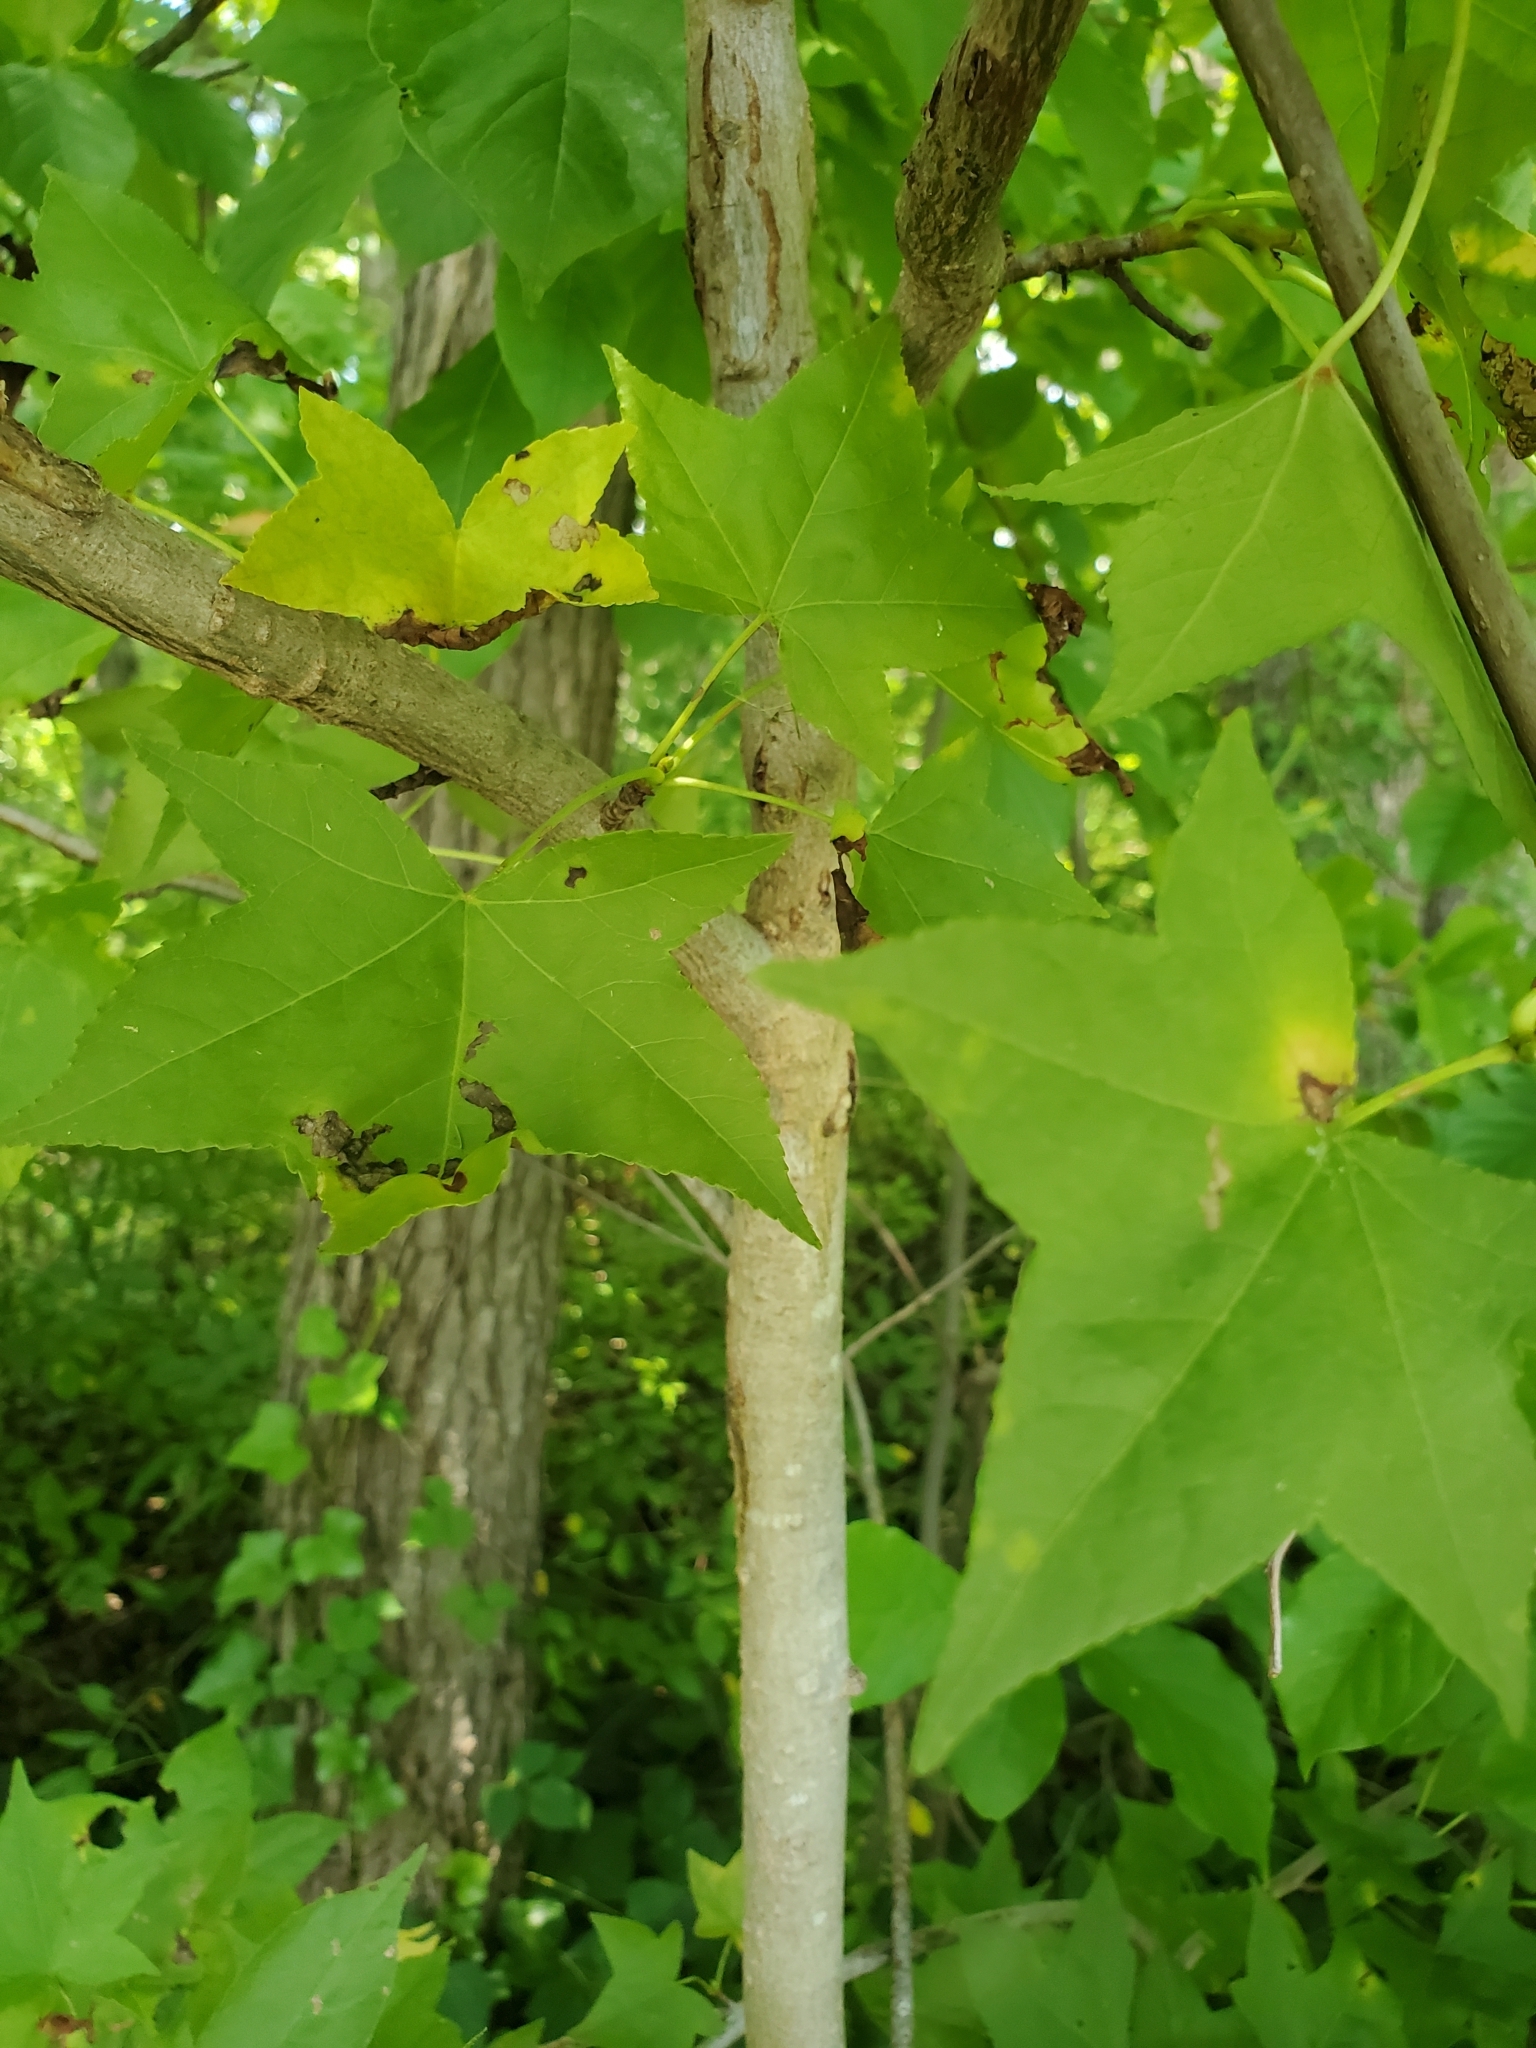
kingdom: Plantae
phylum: Tracheophyta
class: Magnoliopsida
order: Saxifragales
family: Altingiaceae
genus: Liquidambar
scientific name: Liquidambar styraciflua
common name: Sweet gum
